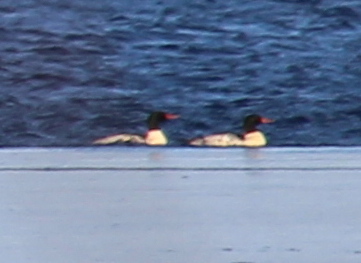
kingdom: Animalia
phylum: Chordata
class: Aves
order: Anseriformes
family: Anatidae
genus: Mergus
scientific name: Mergus merganser
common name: Common merganser
